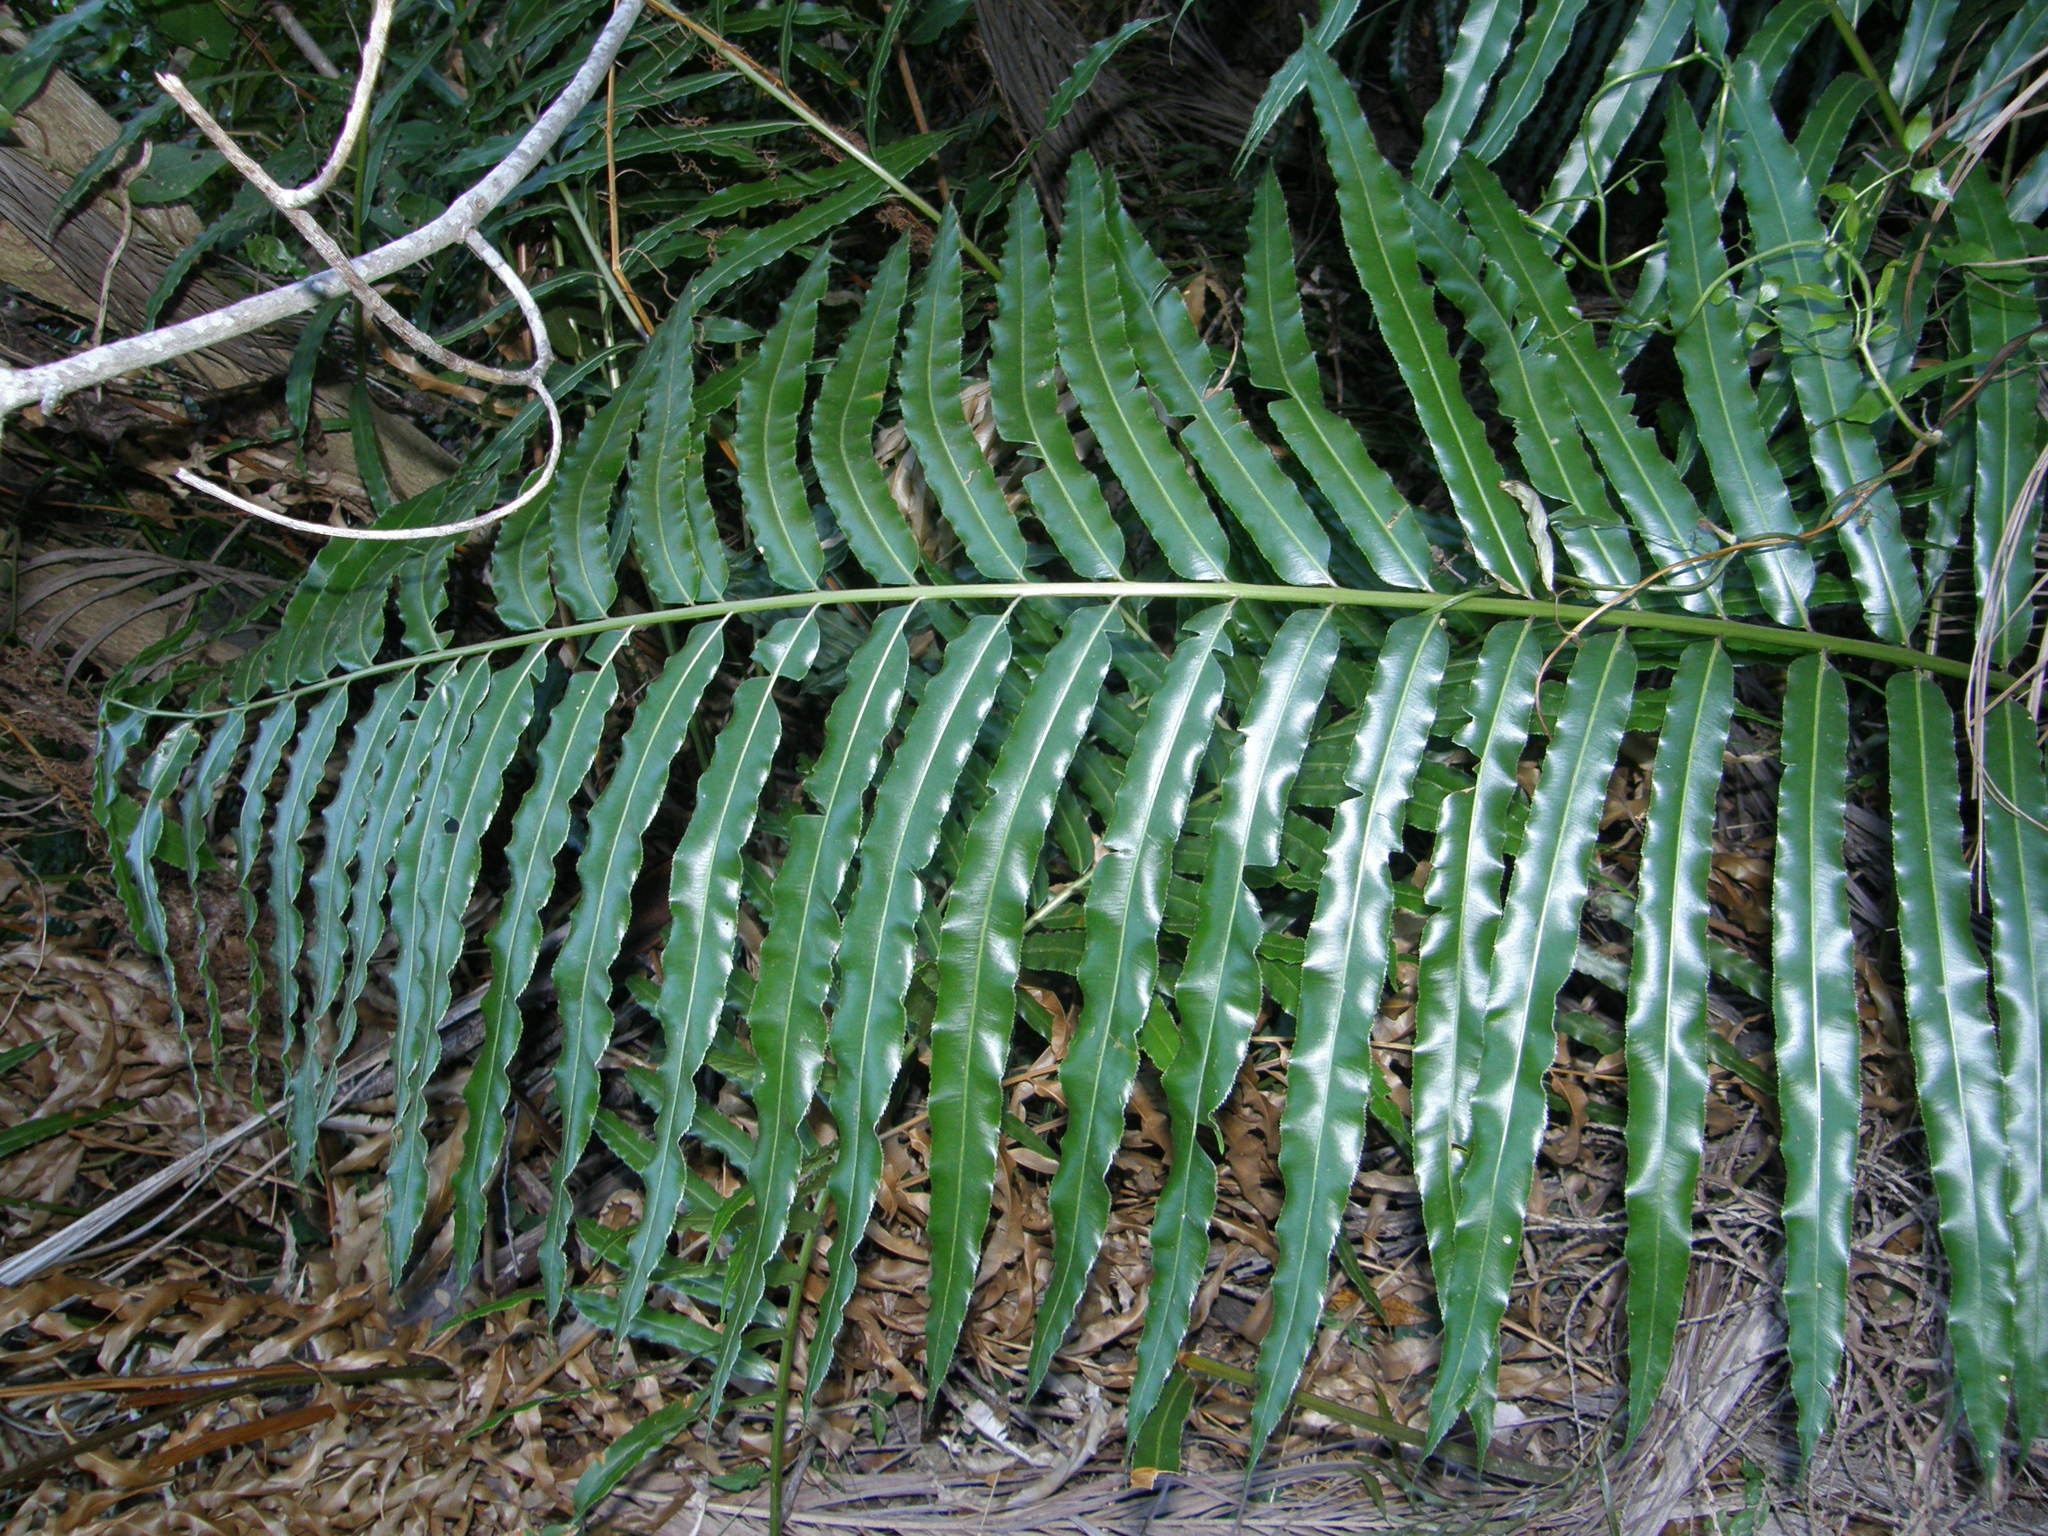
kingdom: Plantae
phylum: Tracheophyta
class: Polypodiopsida
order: Polypodiales
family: Blechnaceae
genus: Stenochlaena
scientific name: Stenochlaena tenuifolia
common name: Giant vine fern
